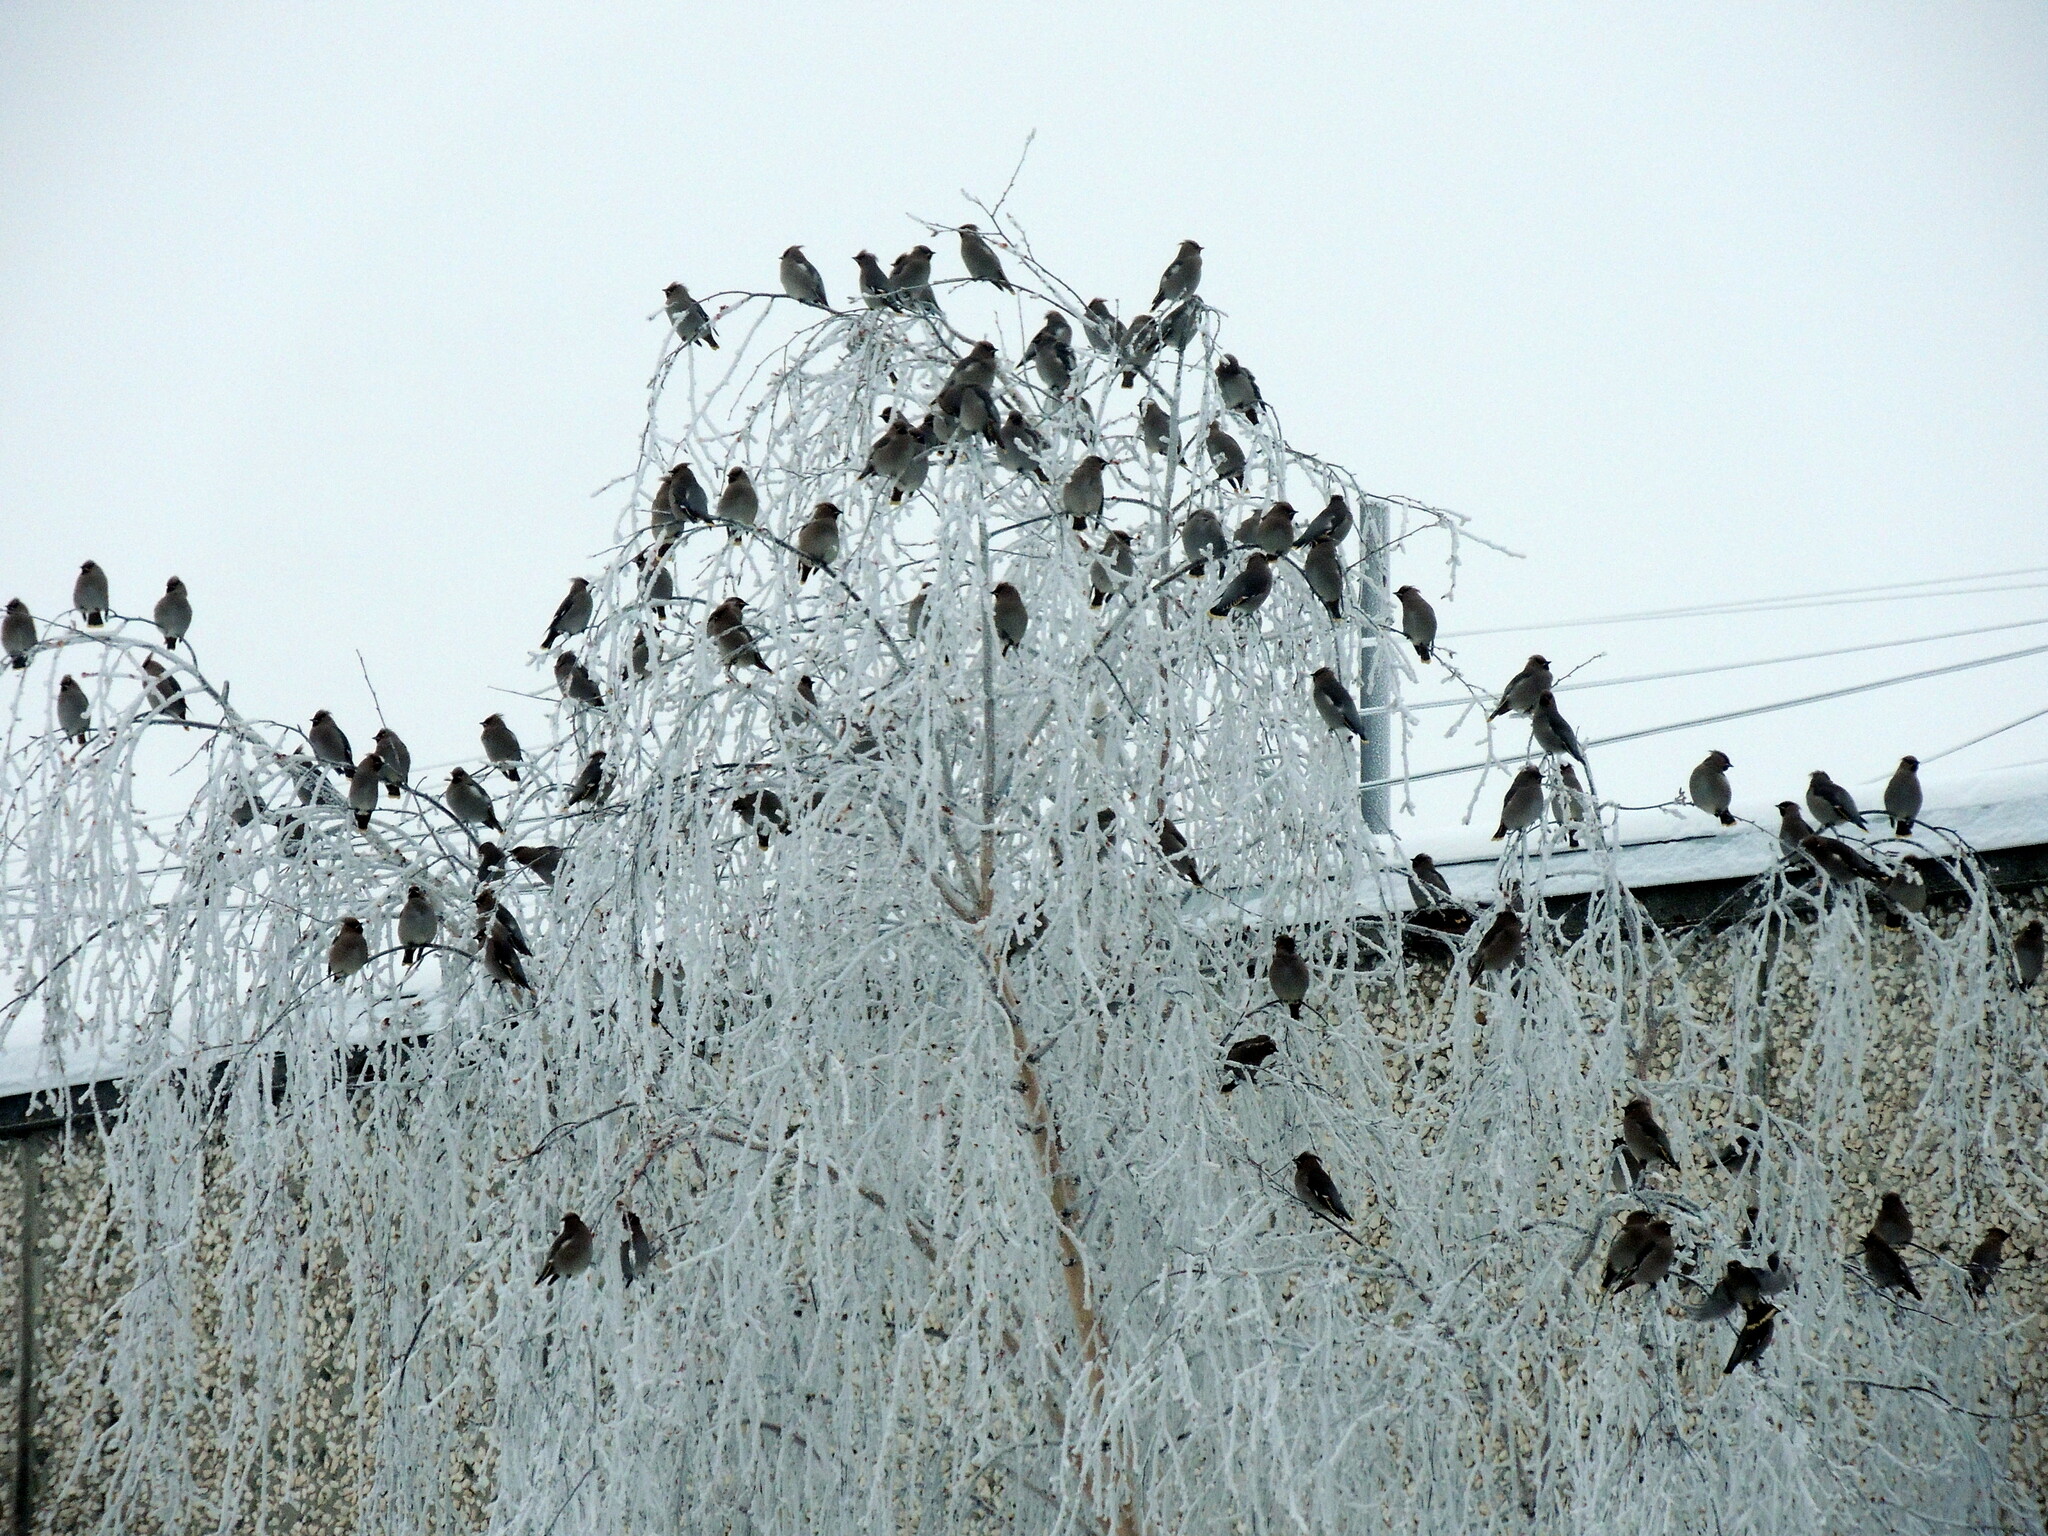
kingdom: Animalia
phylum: Chordata
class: Aves
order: Passeriformes
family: Bombycillidae
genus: Bombycilla
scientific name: Bombycilla garrulus
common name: Bohemian waxwing
